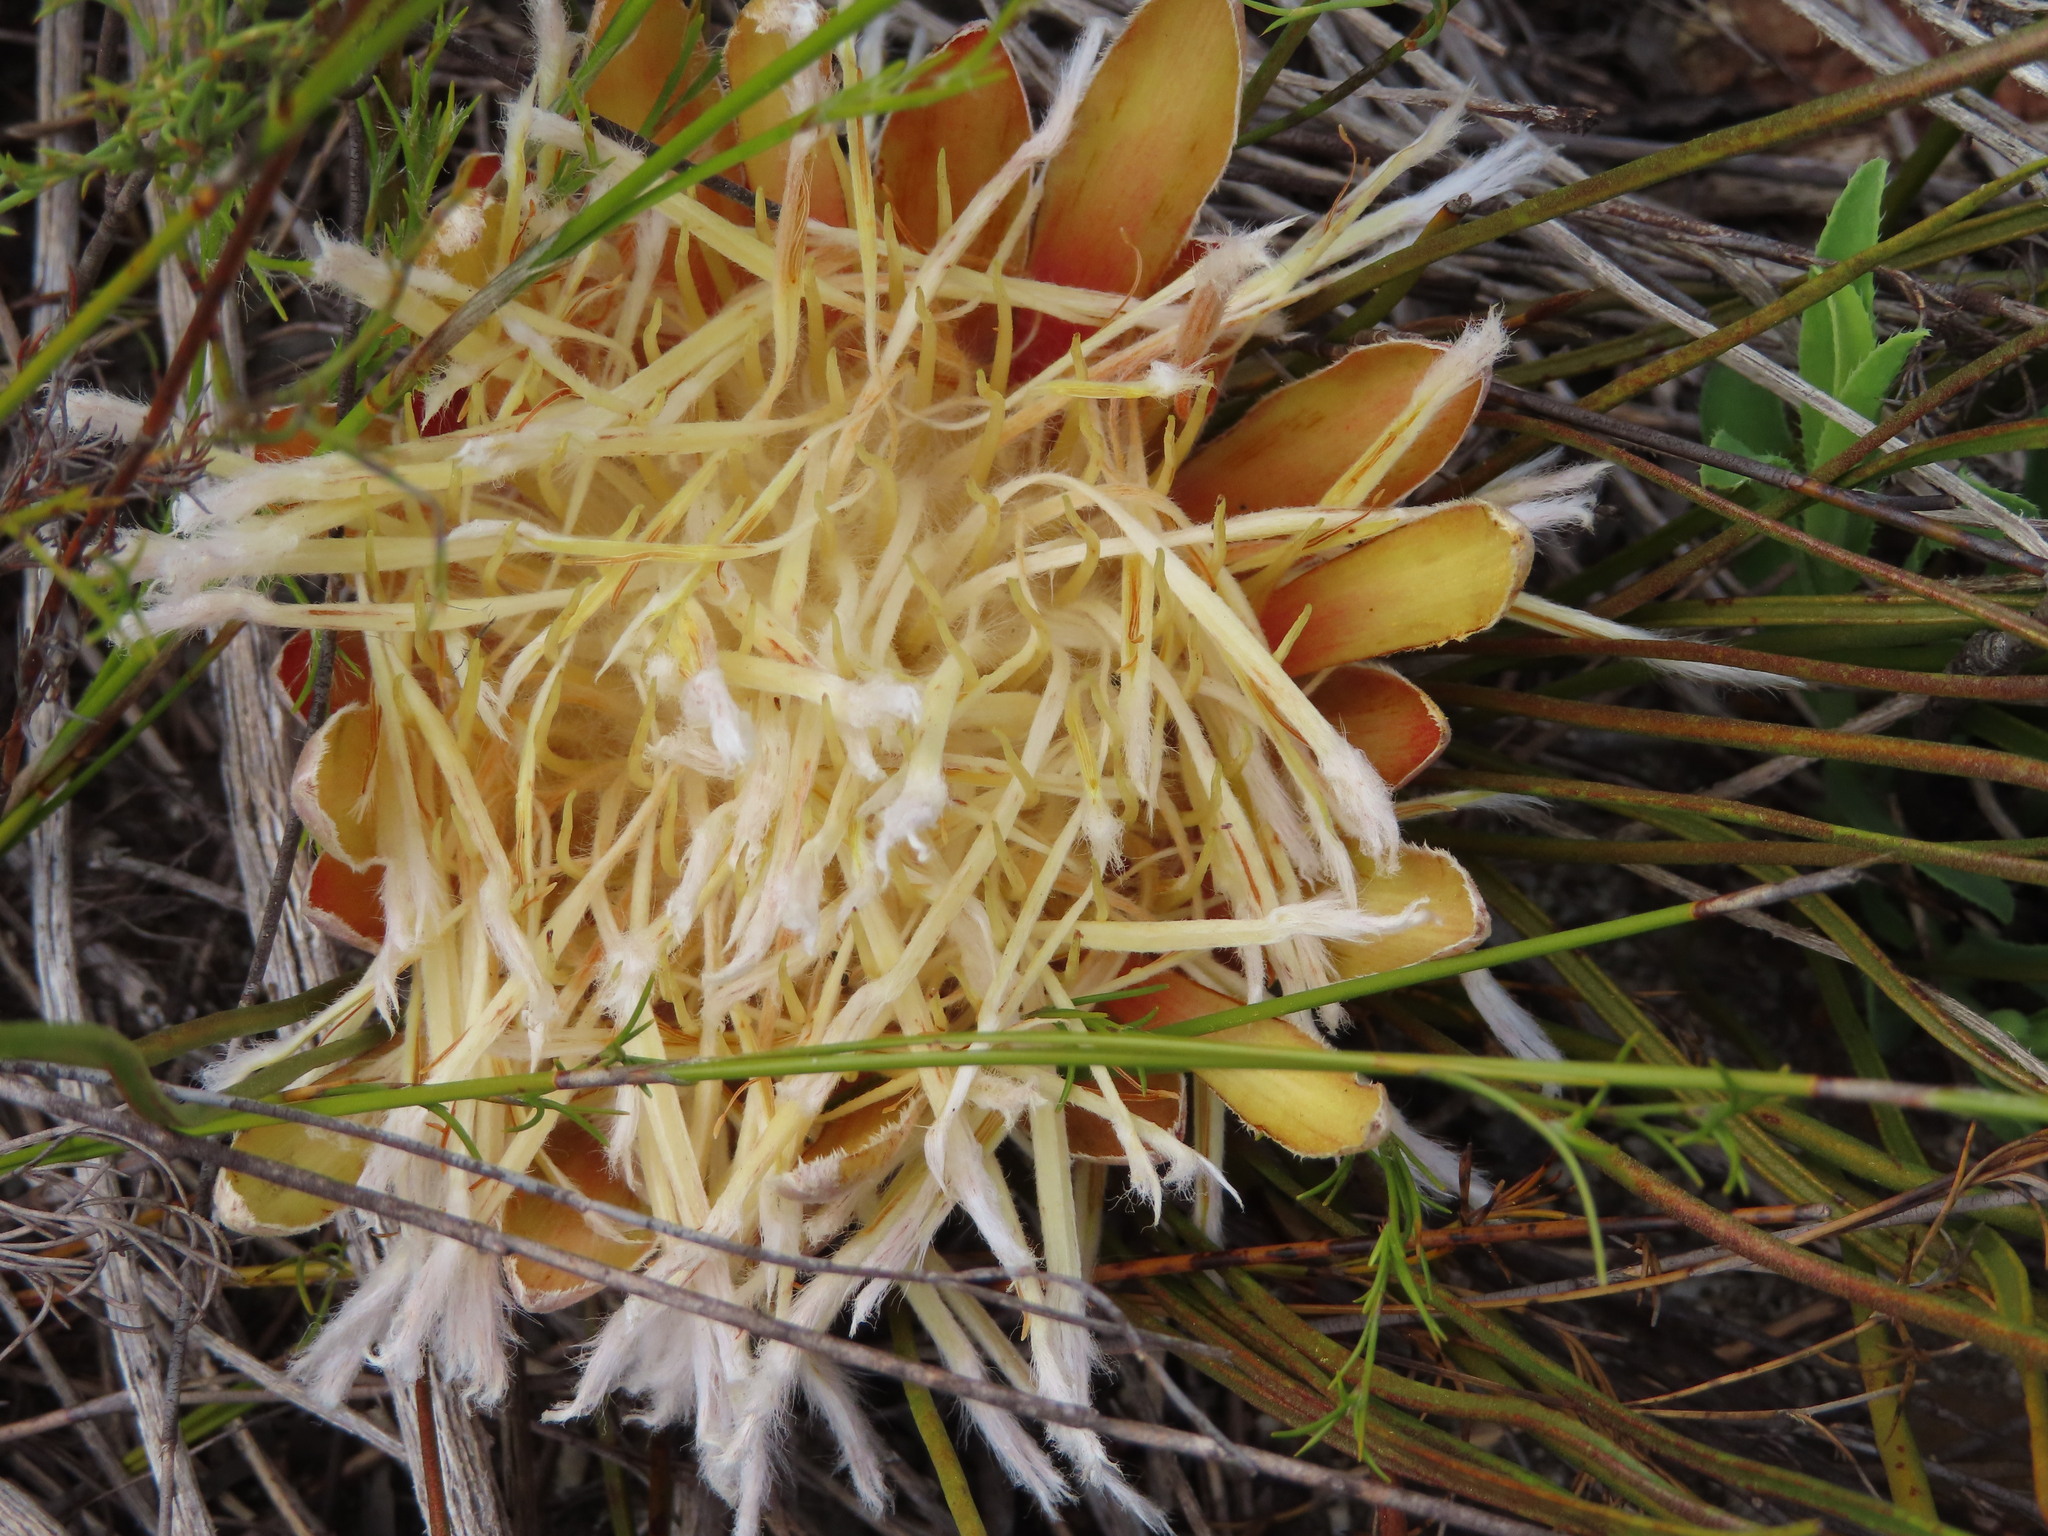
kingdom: Plantae
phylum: Tracheophyta
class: Magnoliopsida
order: Proteales
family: Proteaceae
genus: Protea
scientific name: Protea scorzonerifolia
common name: Channel-leaf sugarbush
